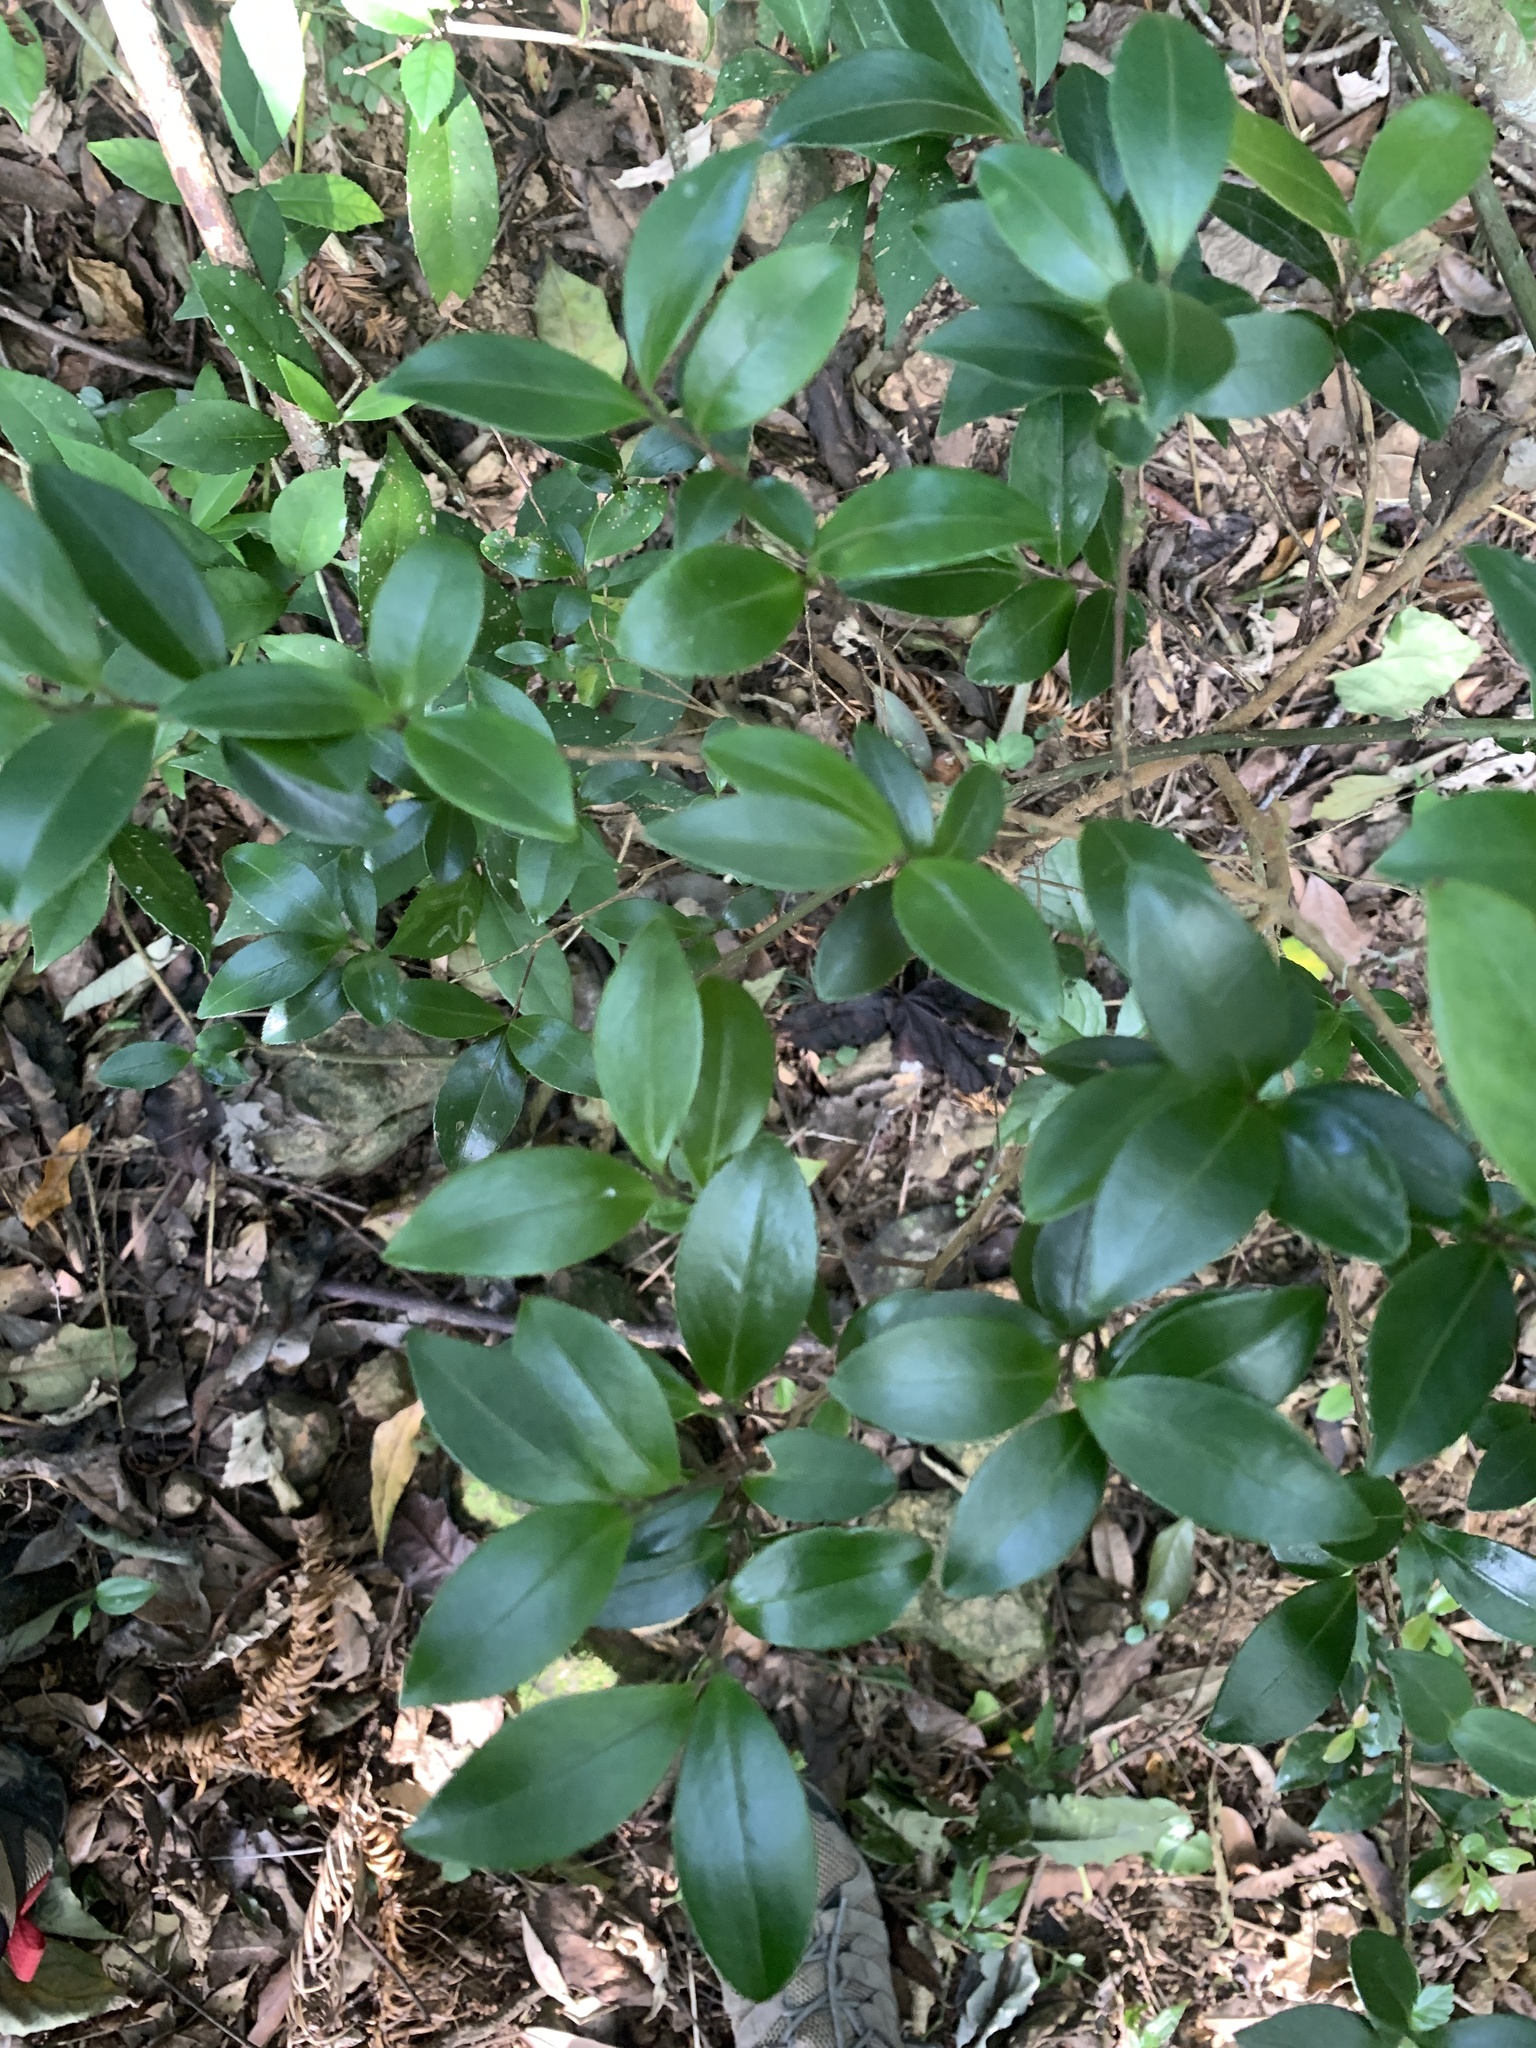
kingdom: Plantae
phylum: Tracheophyta
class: Magnoliopsida
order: Ericales
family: Theaceae
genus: Camellia
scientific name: Camellia brevistyla
